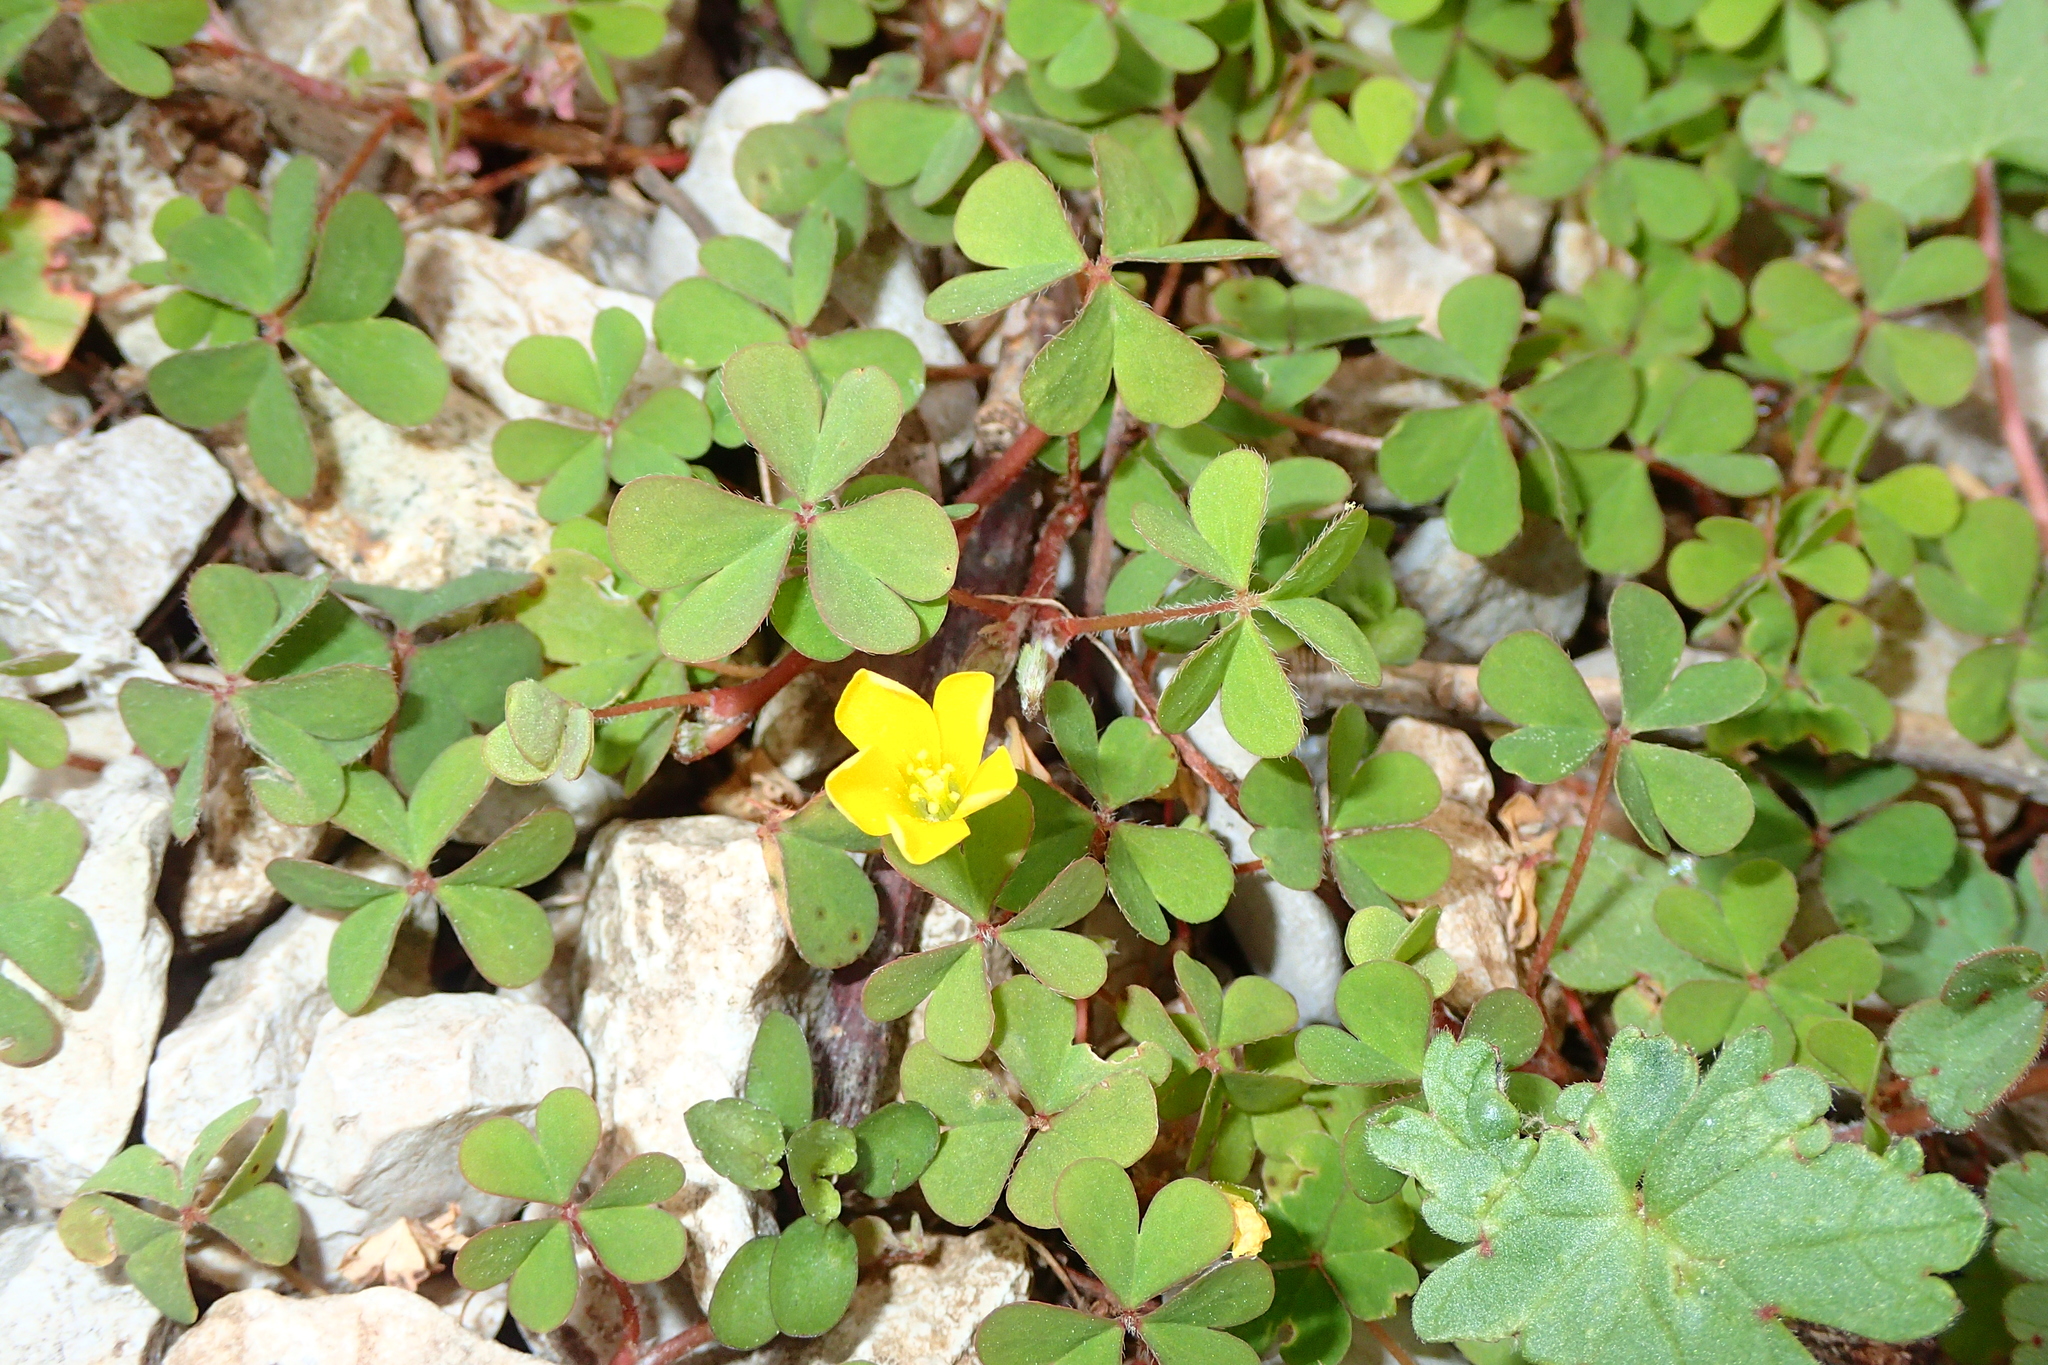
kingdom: Plantae
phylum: Tracheophyta
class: Magnoliopsida
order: Oxalidales
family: Oxalidaceae
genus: Oxalis
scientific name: Oxalis corniculata
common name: Procumbent yellow-sorrel
